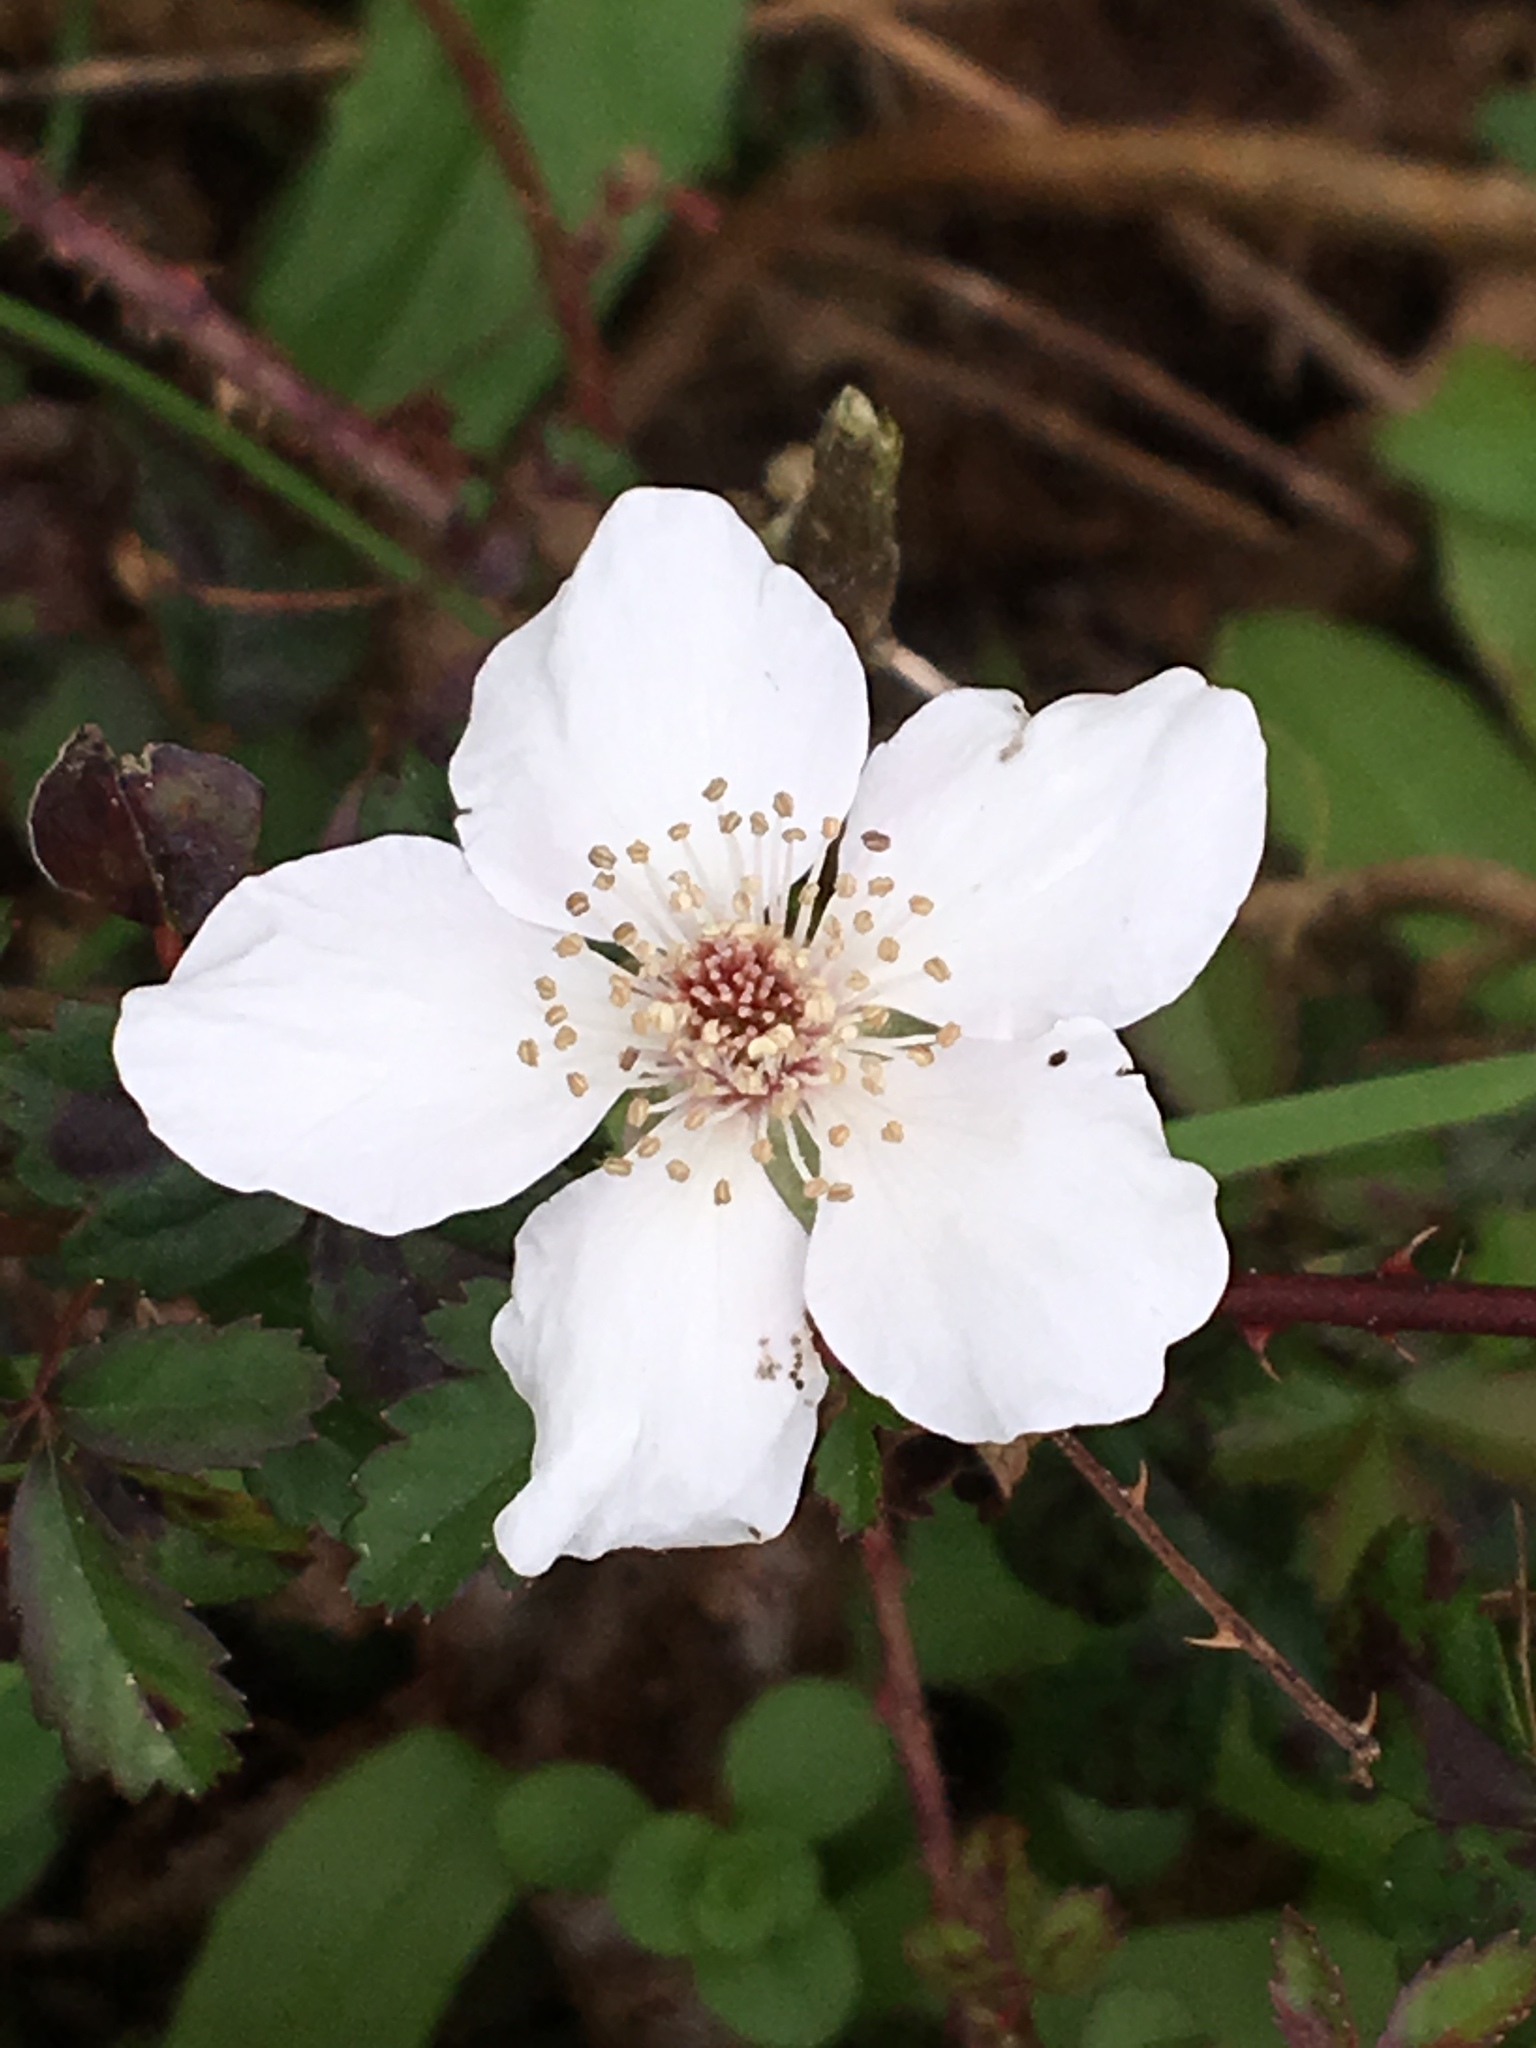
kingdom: Plantae
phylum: Tracheophyta
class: Magnoliopsida
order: Rosales
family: Rosaceae
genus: Rubus
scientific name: Rubus trivialis
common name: Southern dewberry
